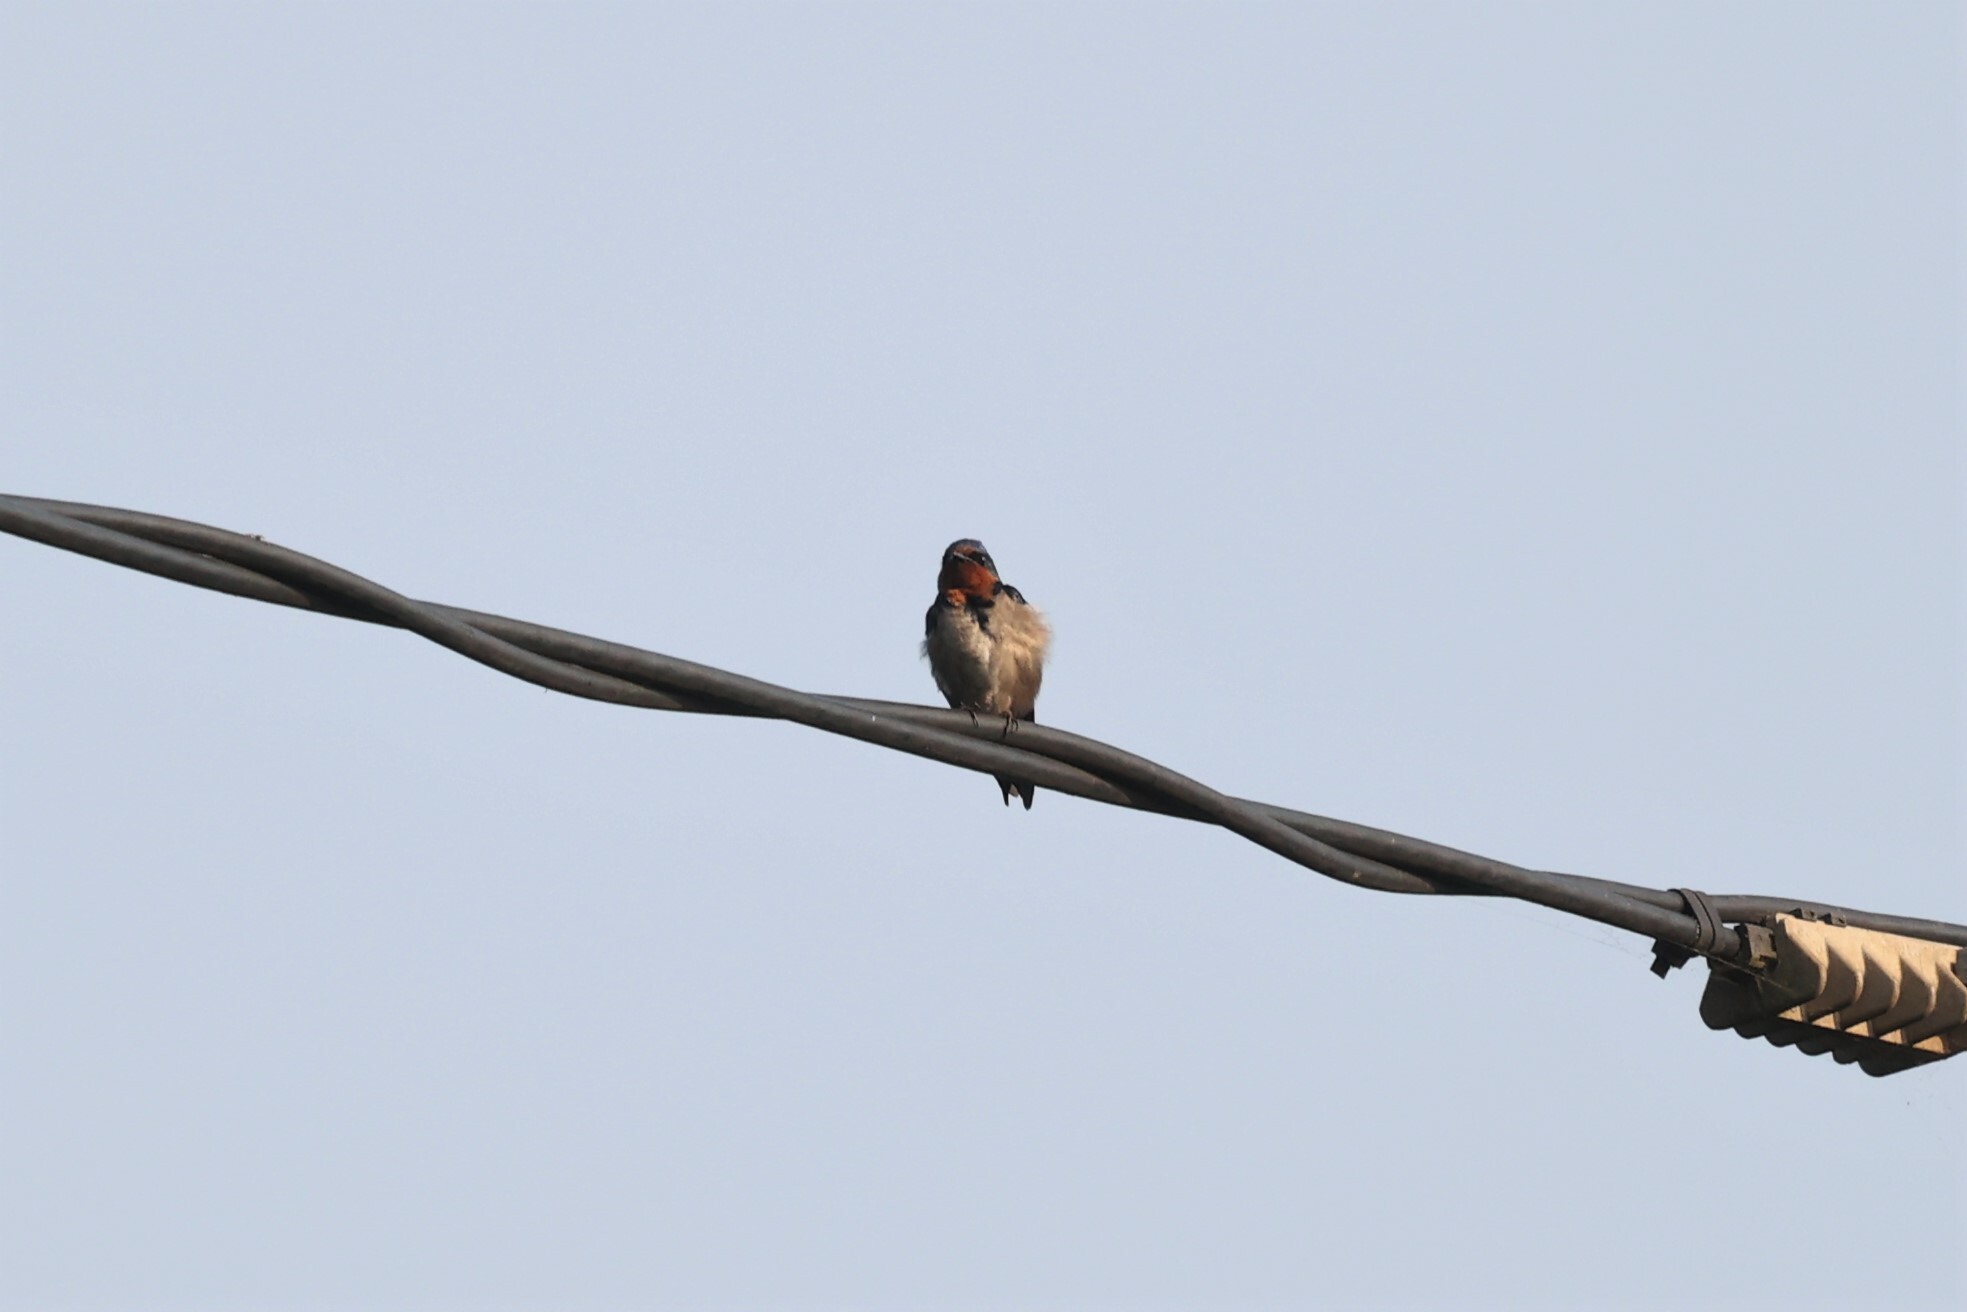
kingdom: Animalia
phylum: Chordata
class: Aves
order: Passeriformes
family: Hirundinidae
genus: Hirundo
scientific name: Hirundo angolensis
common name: Angola swallow
